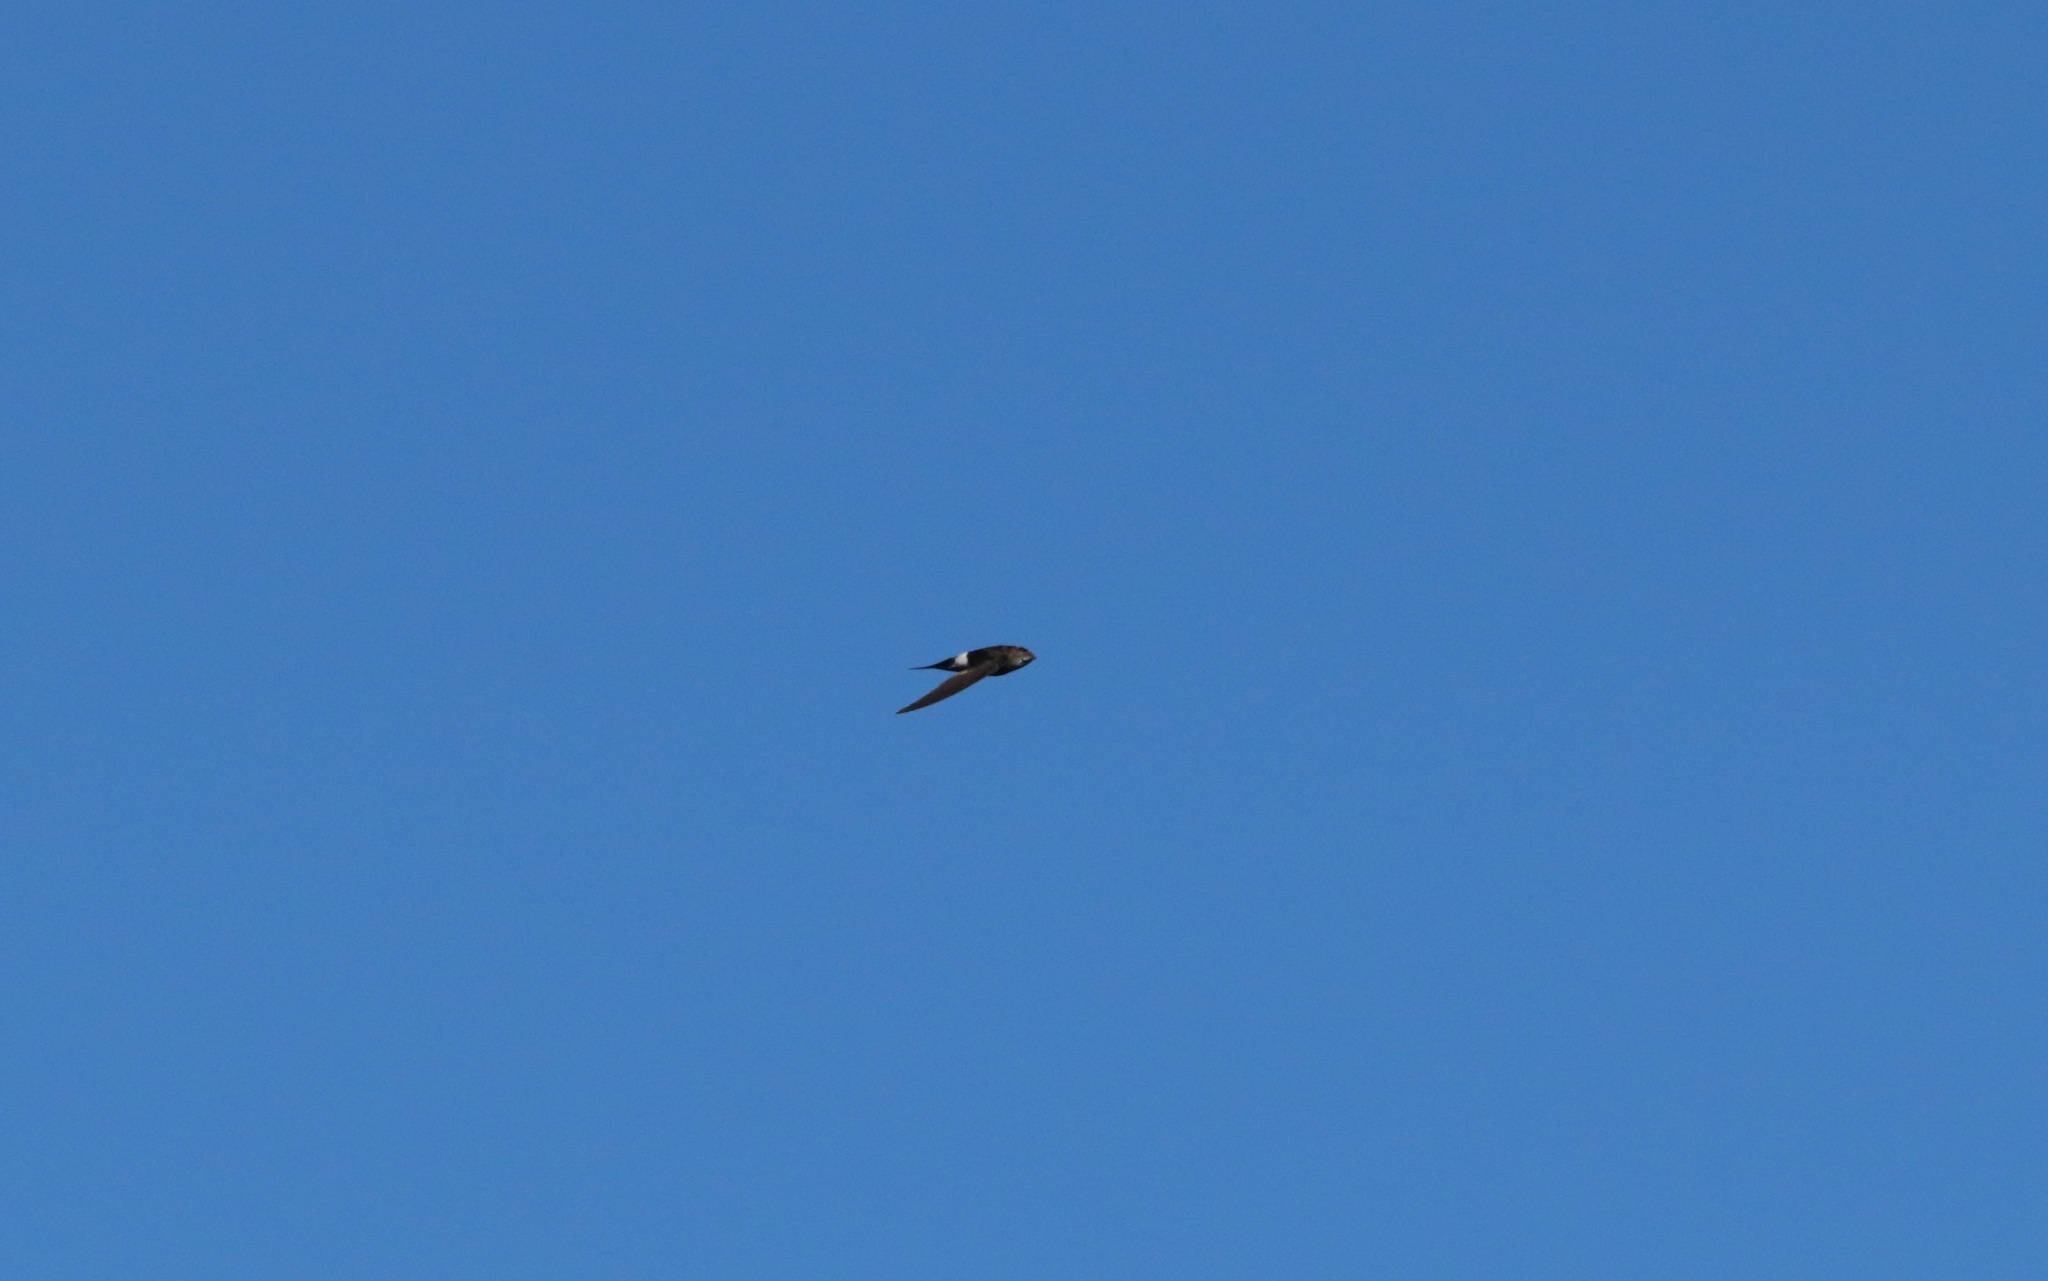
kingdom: Animalia
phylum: Chordata
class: Aves
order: Apodiformes
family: Apodidae
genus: Apus
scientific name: Apus pacificus
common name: Pacific swift
